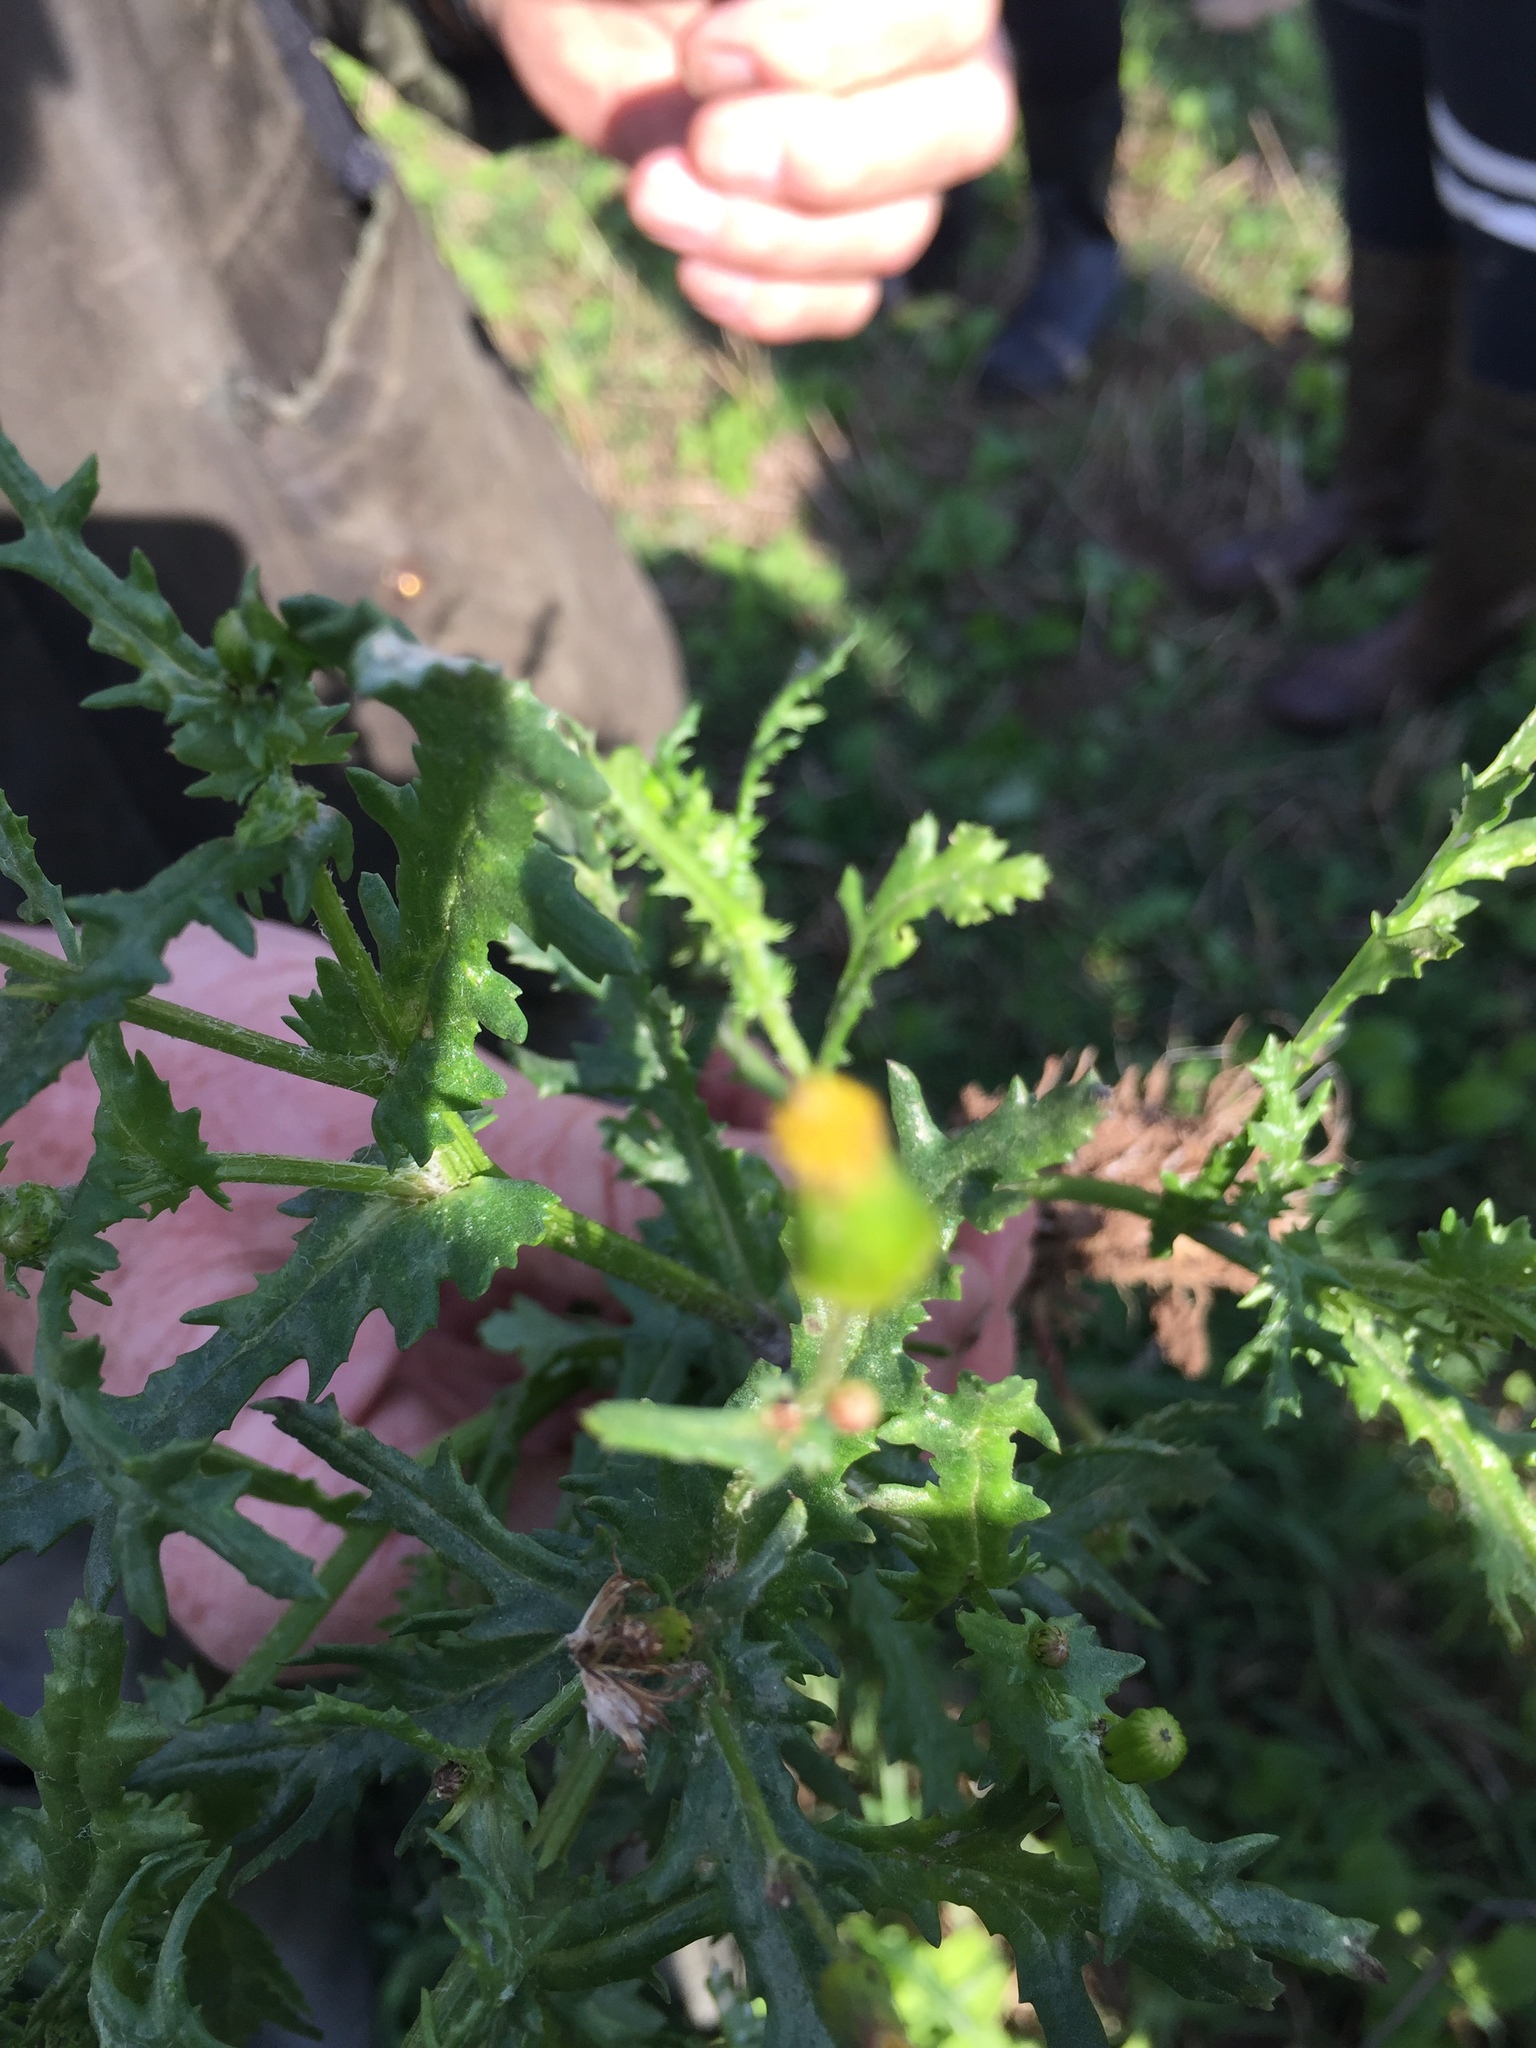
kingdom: Plantae
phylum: Tracheophyta
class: Magnoliopsida
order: Asterales
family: Asteraceae
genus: Senecio
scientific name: Senecio vulgaris
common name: Old-man-in-the-spring
